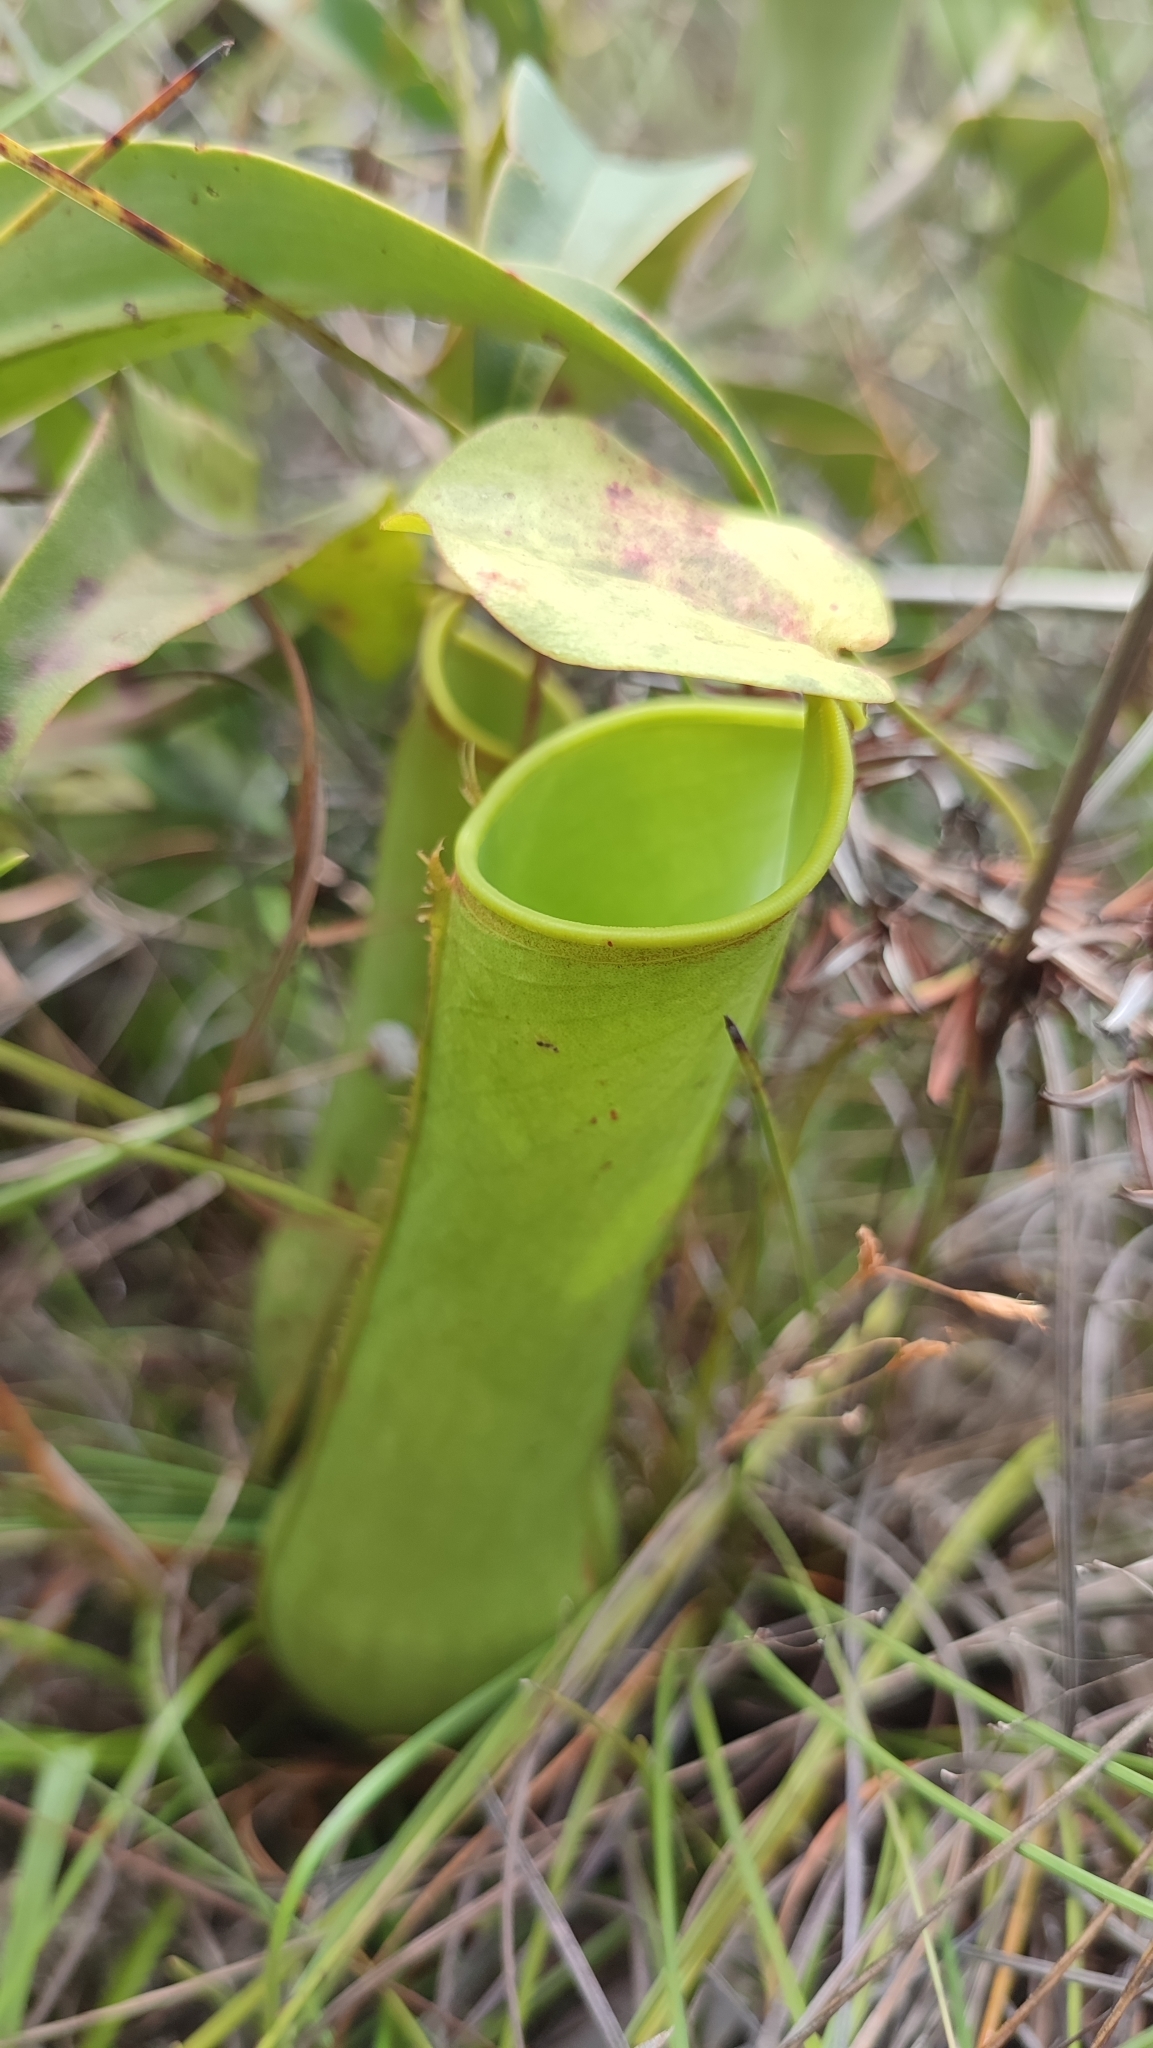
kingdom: Plantae
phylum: Tracheophyta
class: Magnoliopsida
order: Caryophyllales
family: Nepenthaceae
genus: Nepenthes
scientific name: Nepenthes gracilis
